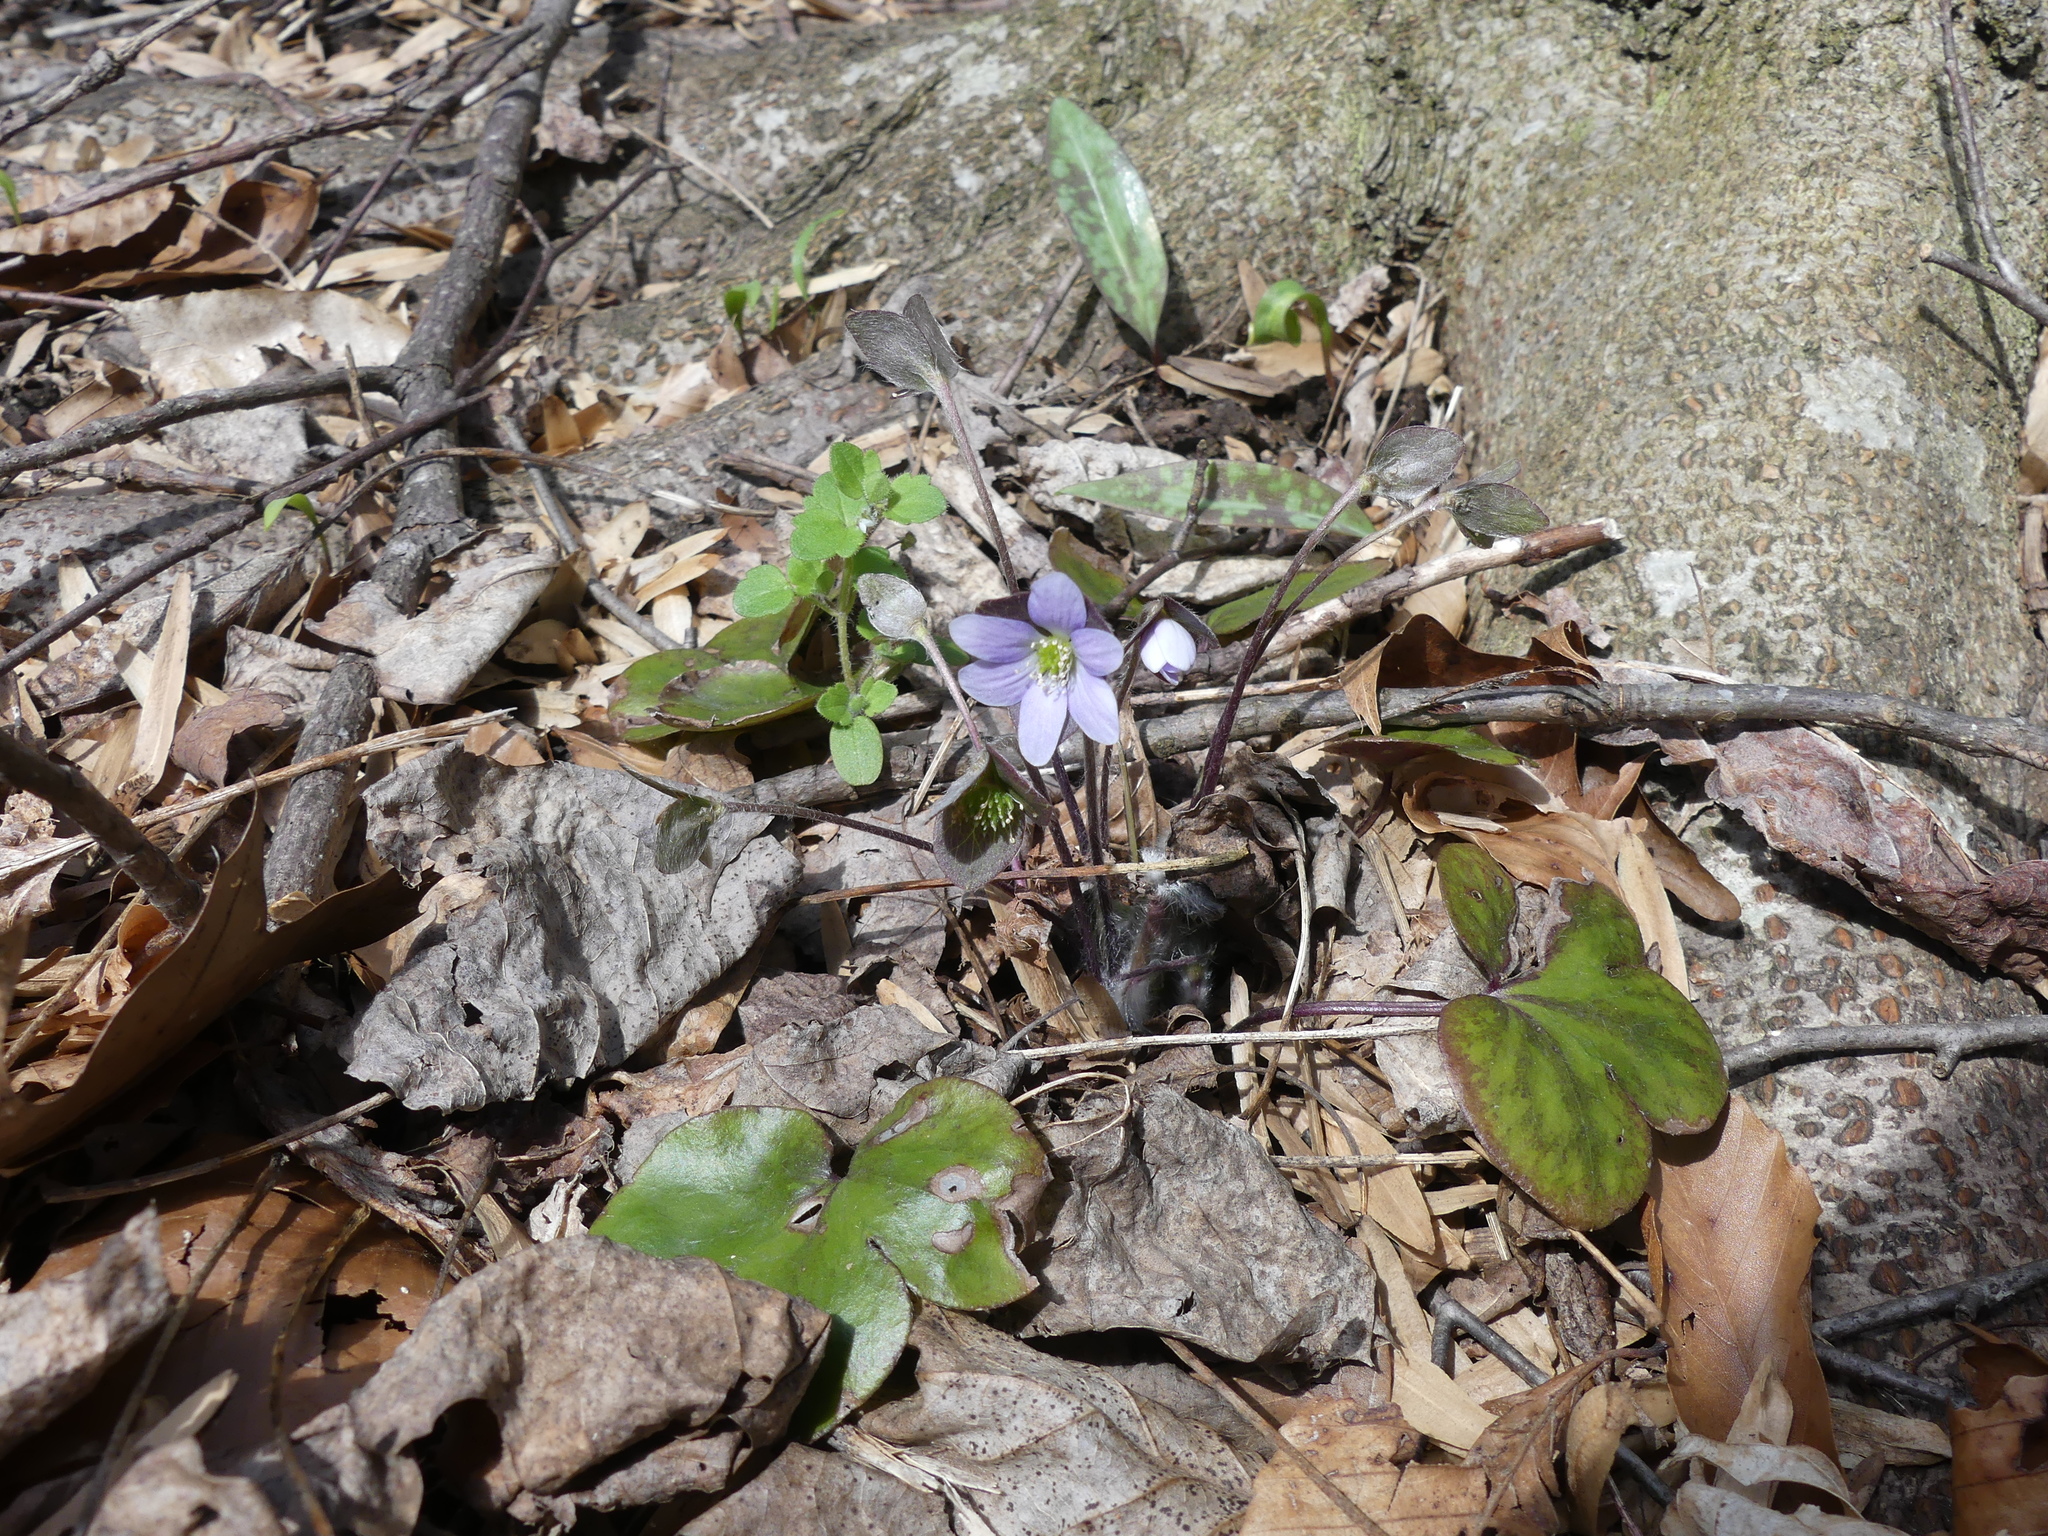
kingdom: Plantae
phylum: Tracheophyta
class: Magnoliopsida
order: Ranunculales
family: Ranunculaceae
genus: Hepatica
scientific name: Hepatica americana
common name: American hepatica
